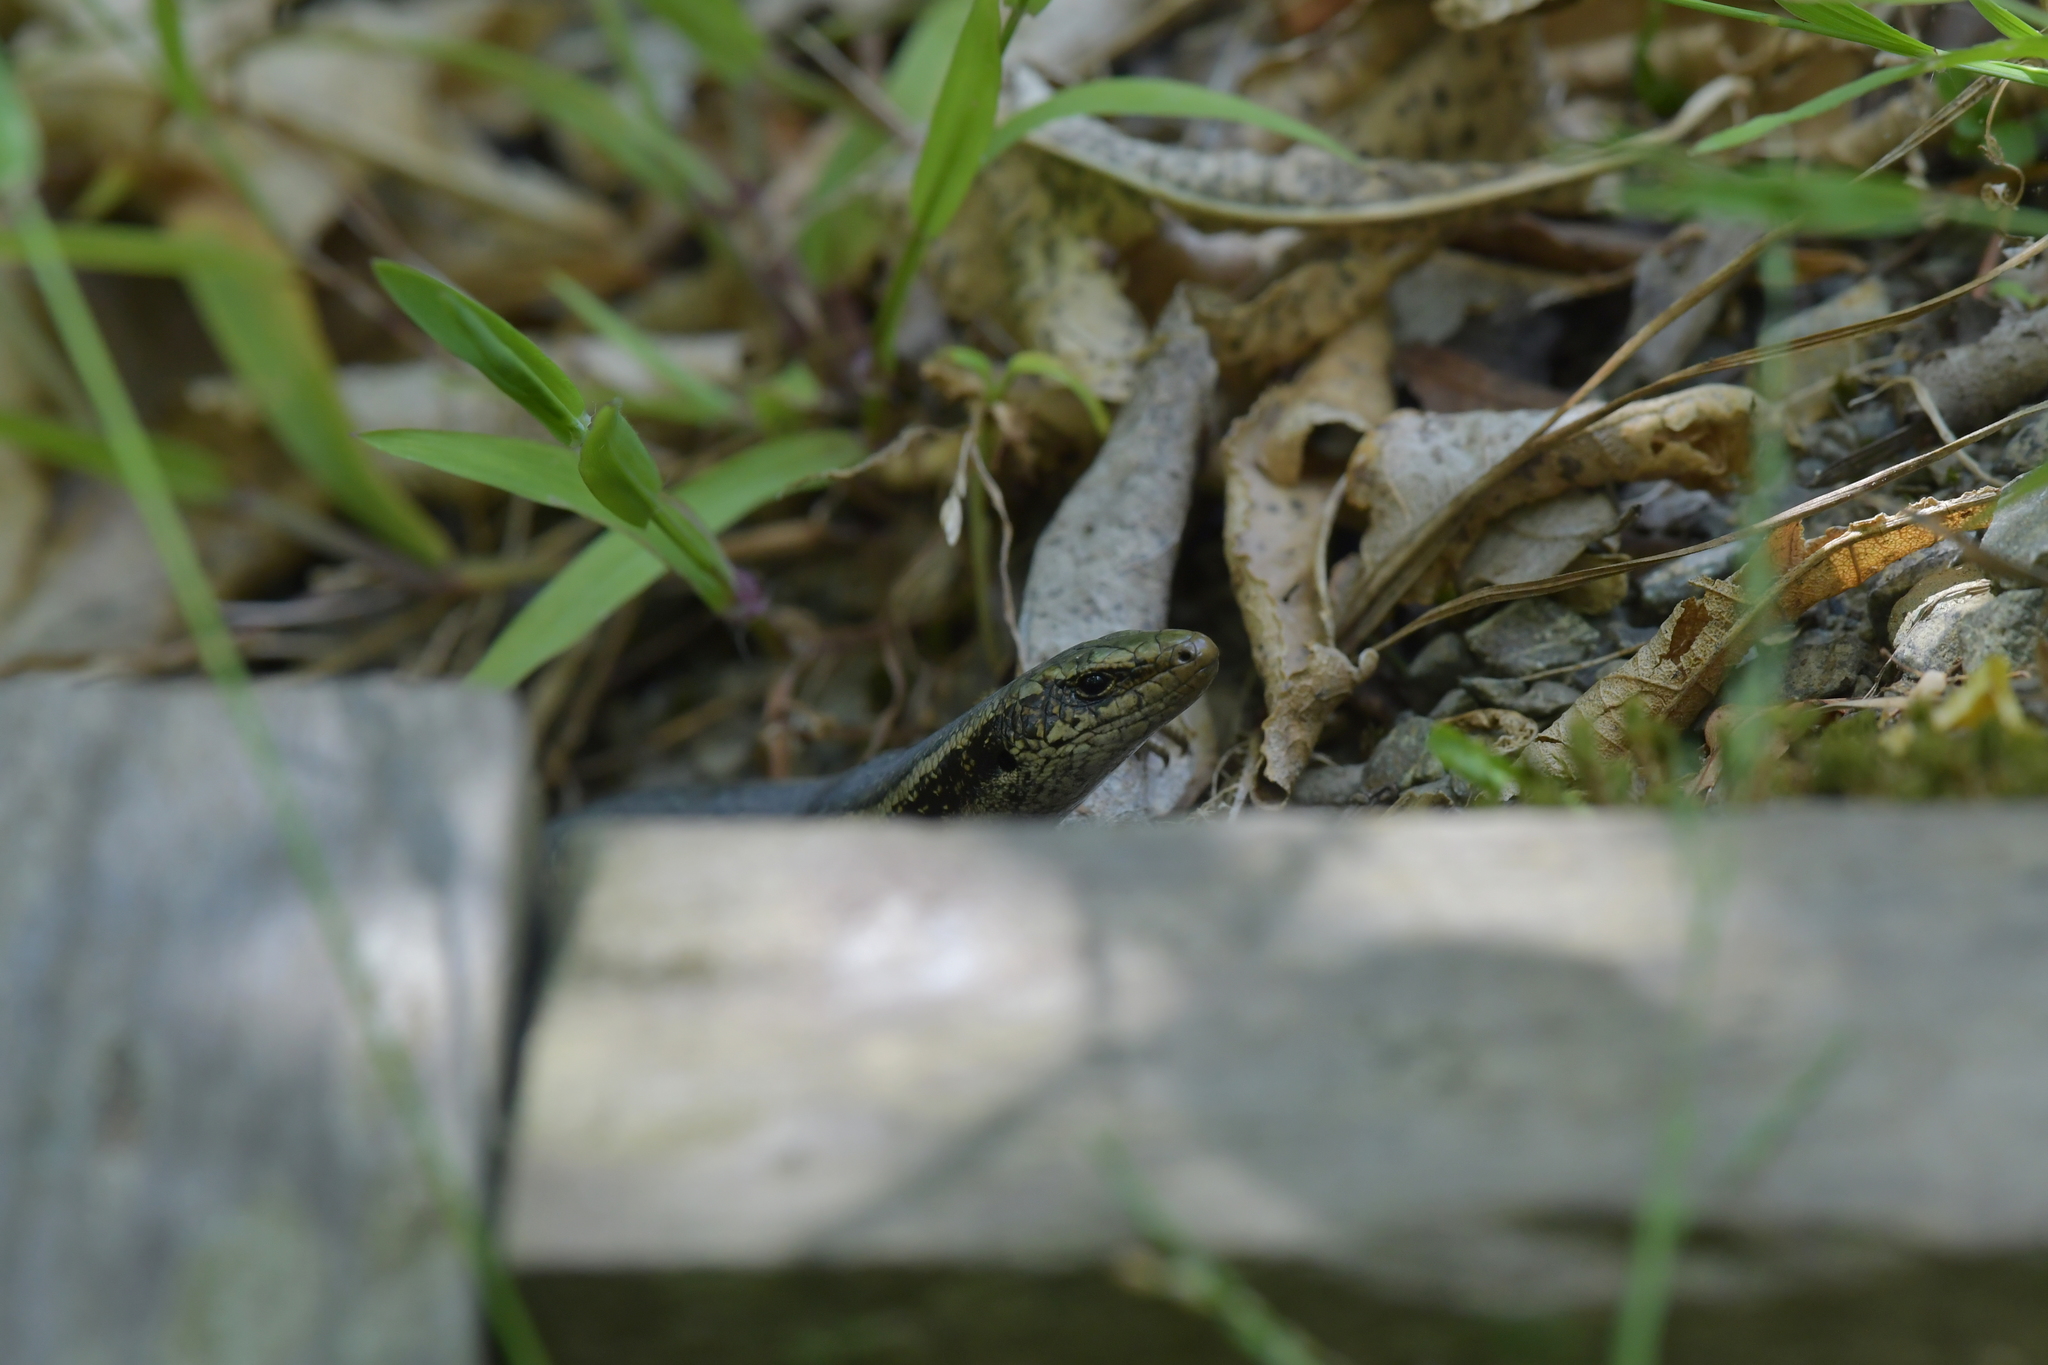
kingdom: Animalia
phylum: Chordata
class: Squamata
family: Scincidae
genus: Oligosoma
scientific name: Oligosoma kokowai
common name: Northern spotted skink
